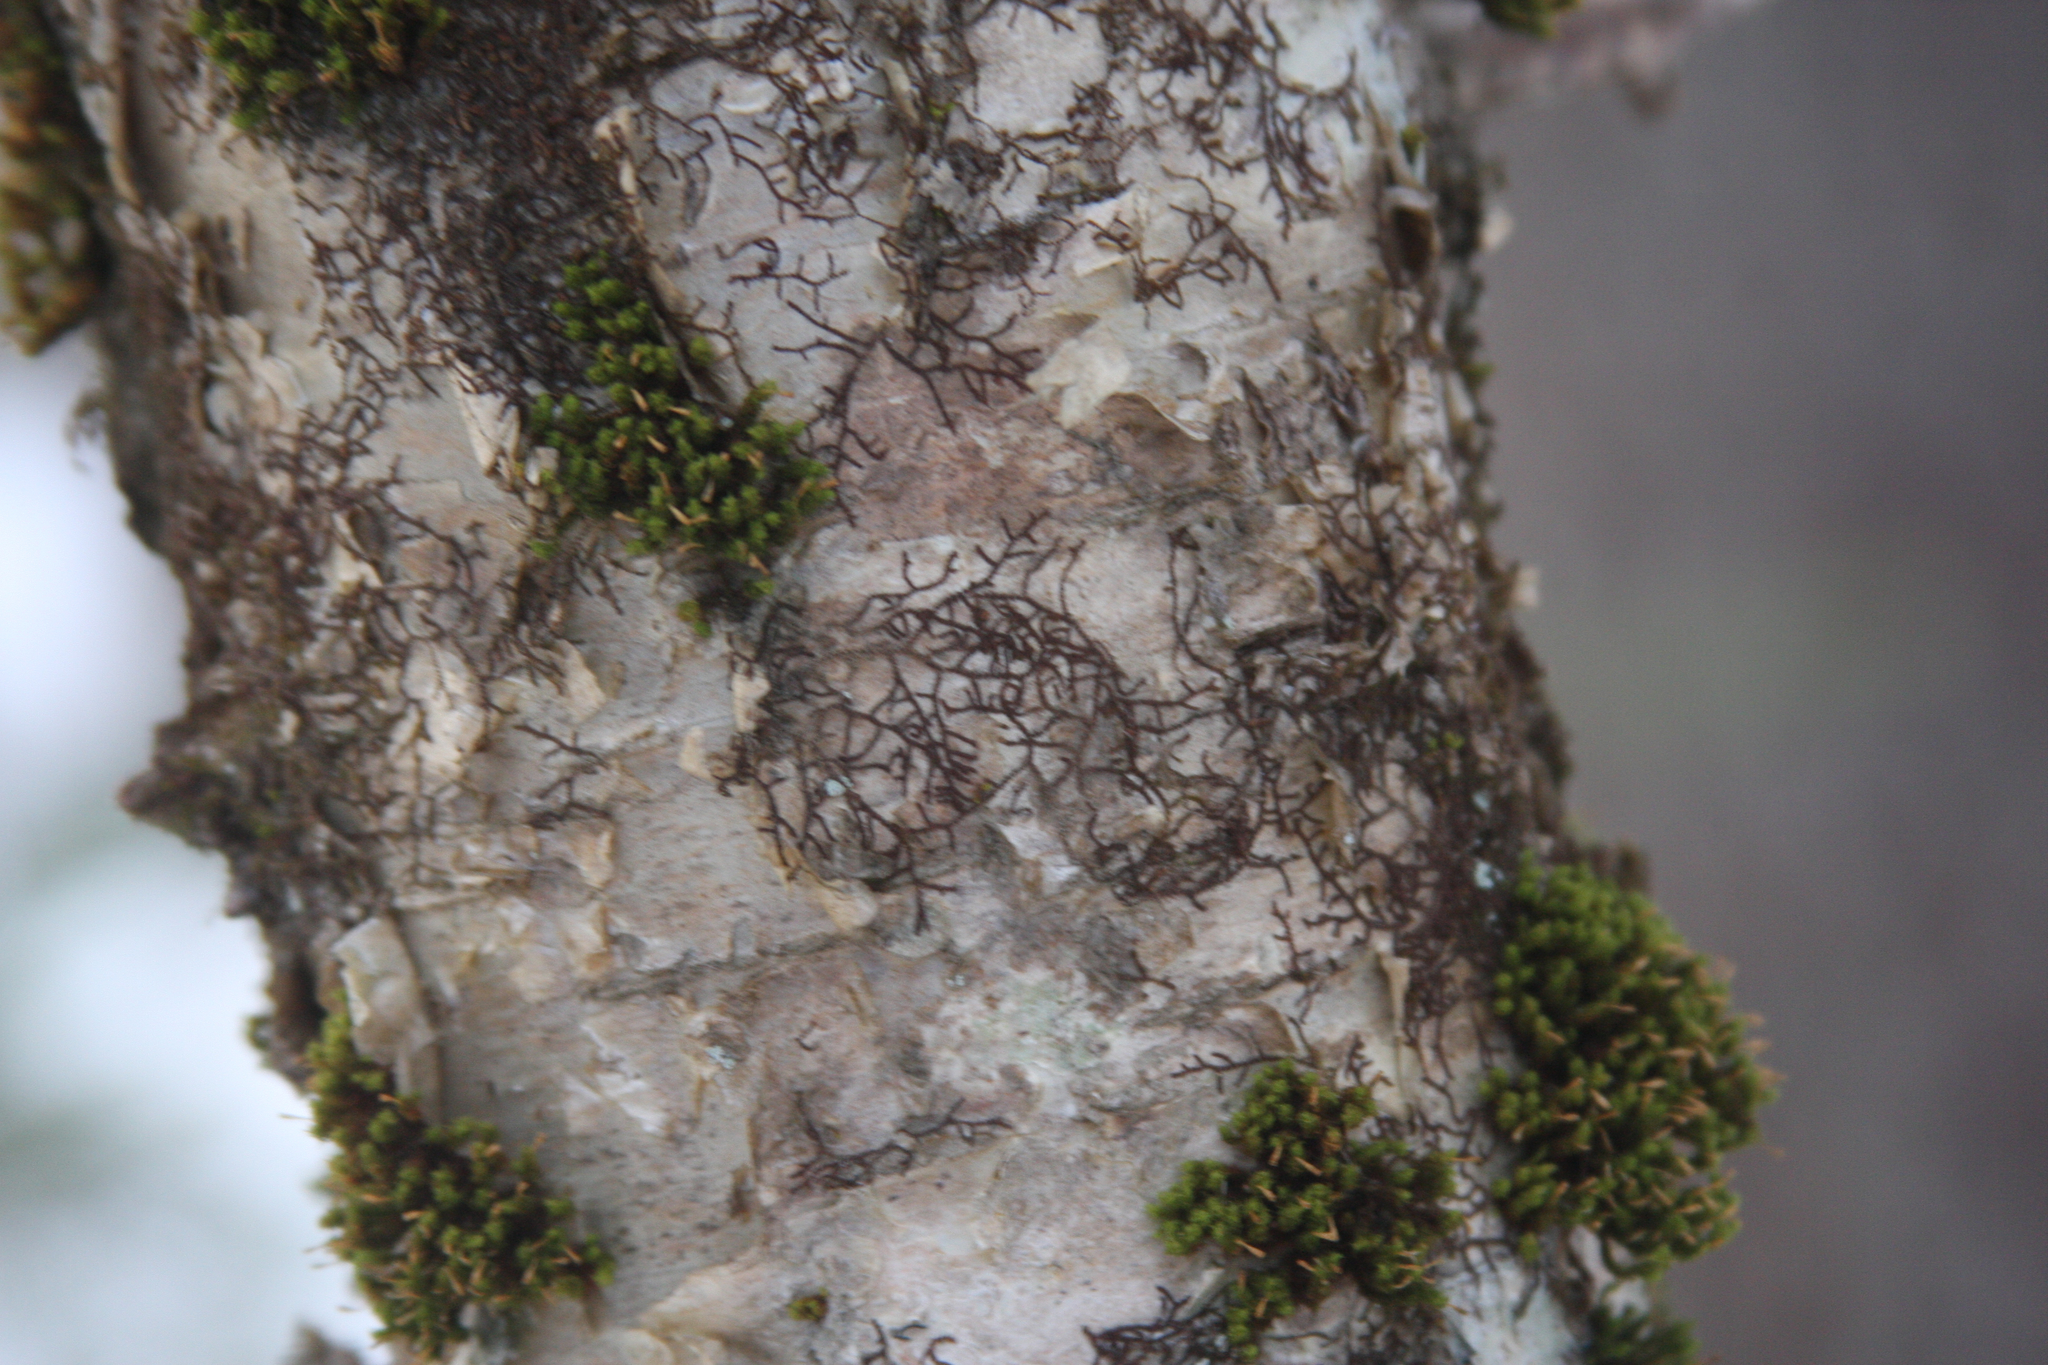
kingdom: Plantae
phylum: Bryophyta
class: Bryopsida
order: Orthotrichales
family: Orthotrichaceae
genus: Ulota
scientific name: Ulota crispa
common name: Crisped pincushion moss
